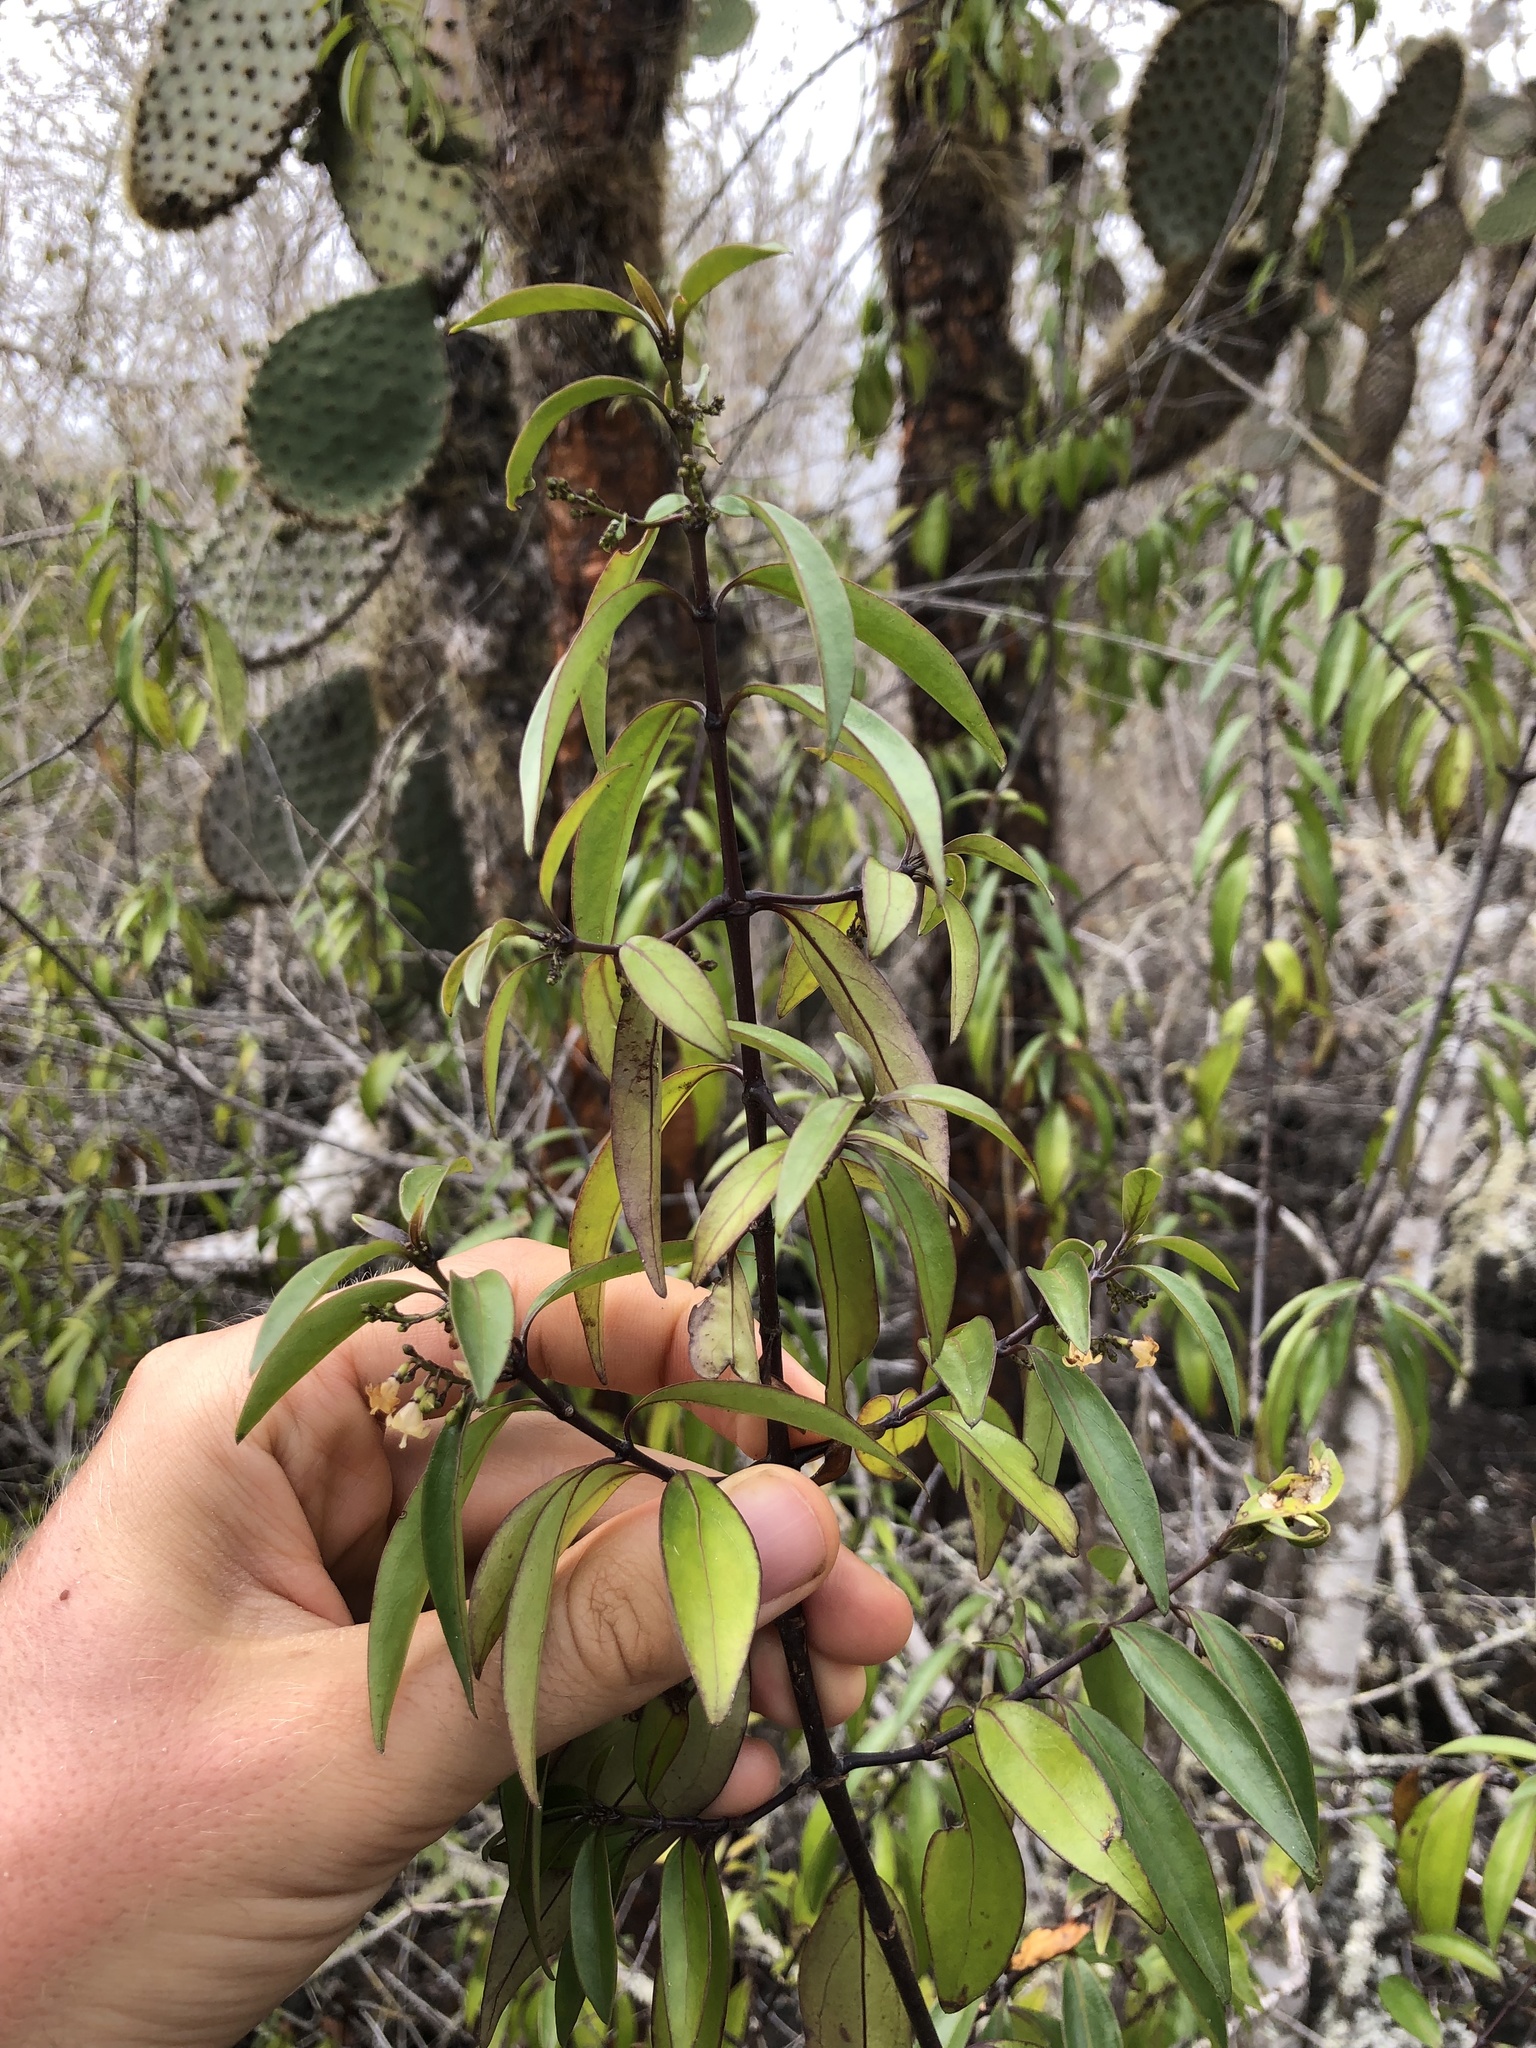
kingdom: Plantae
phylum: Tracheophyta
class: Magnoliopsida
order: Gentianales
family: Rubiaceae
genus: Chiococca
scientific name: Chiococca alba
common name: Snowberry
